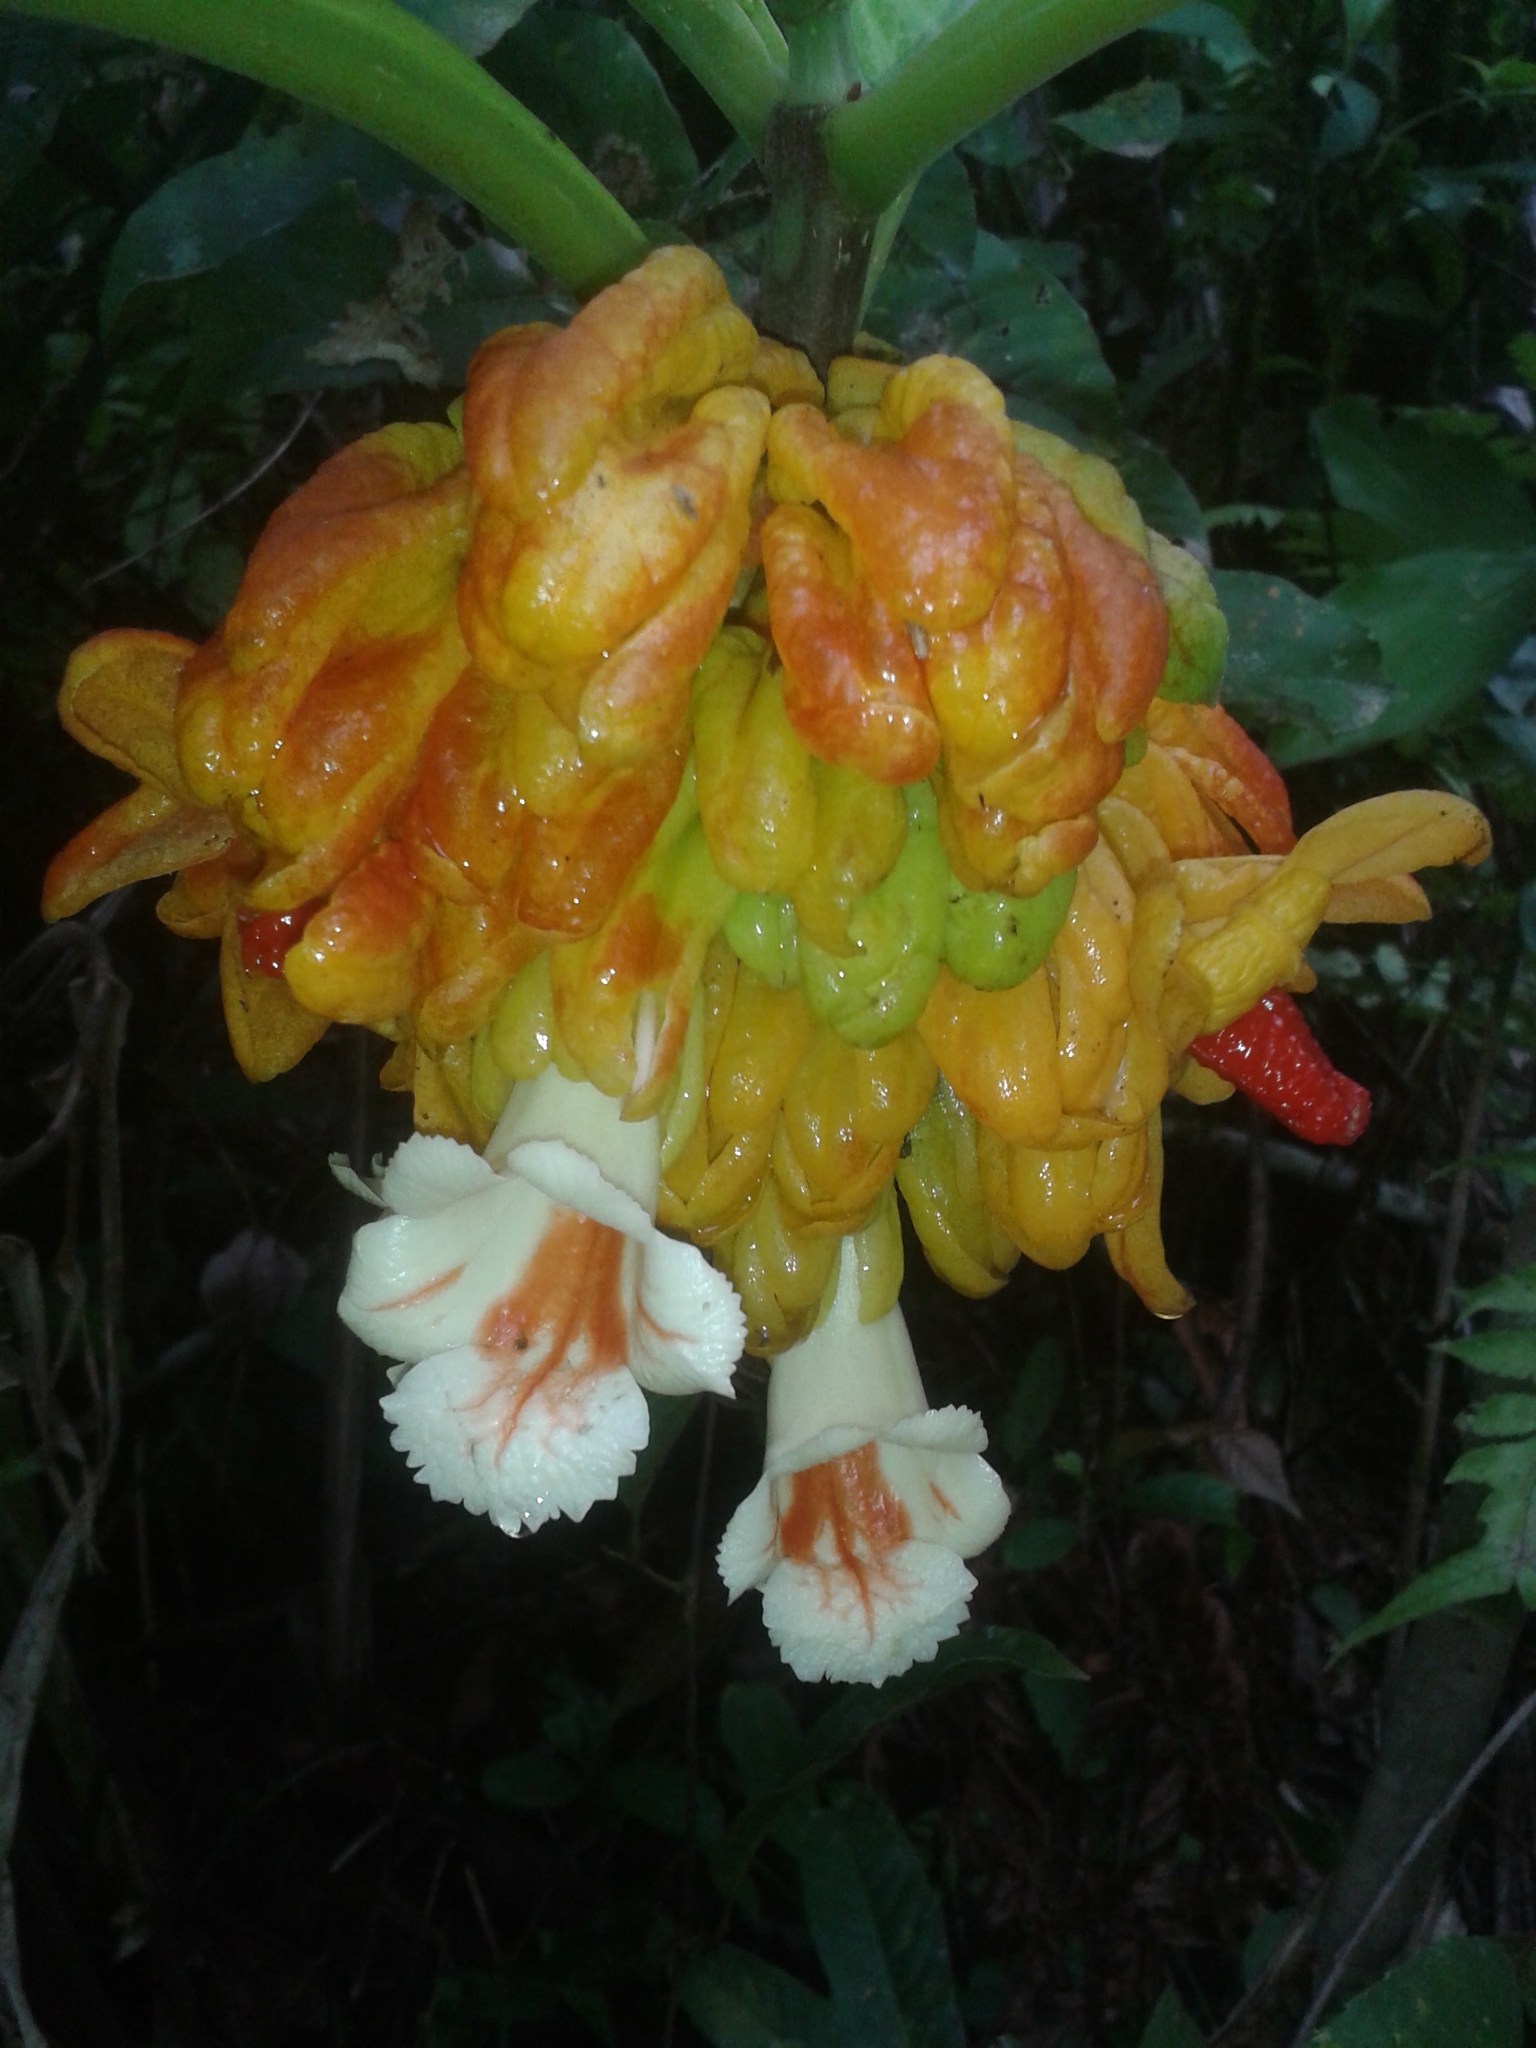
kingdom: Plantae
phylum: Tracheophyta
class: Magnoliopsida
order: Lamiales
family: Gesneriaceae
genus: Drymonia
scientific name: Drymonia macrantha
